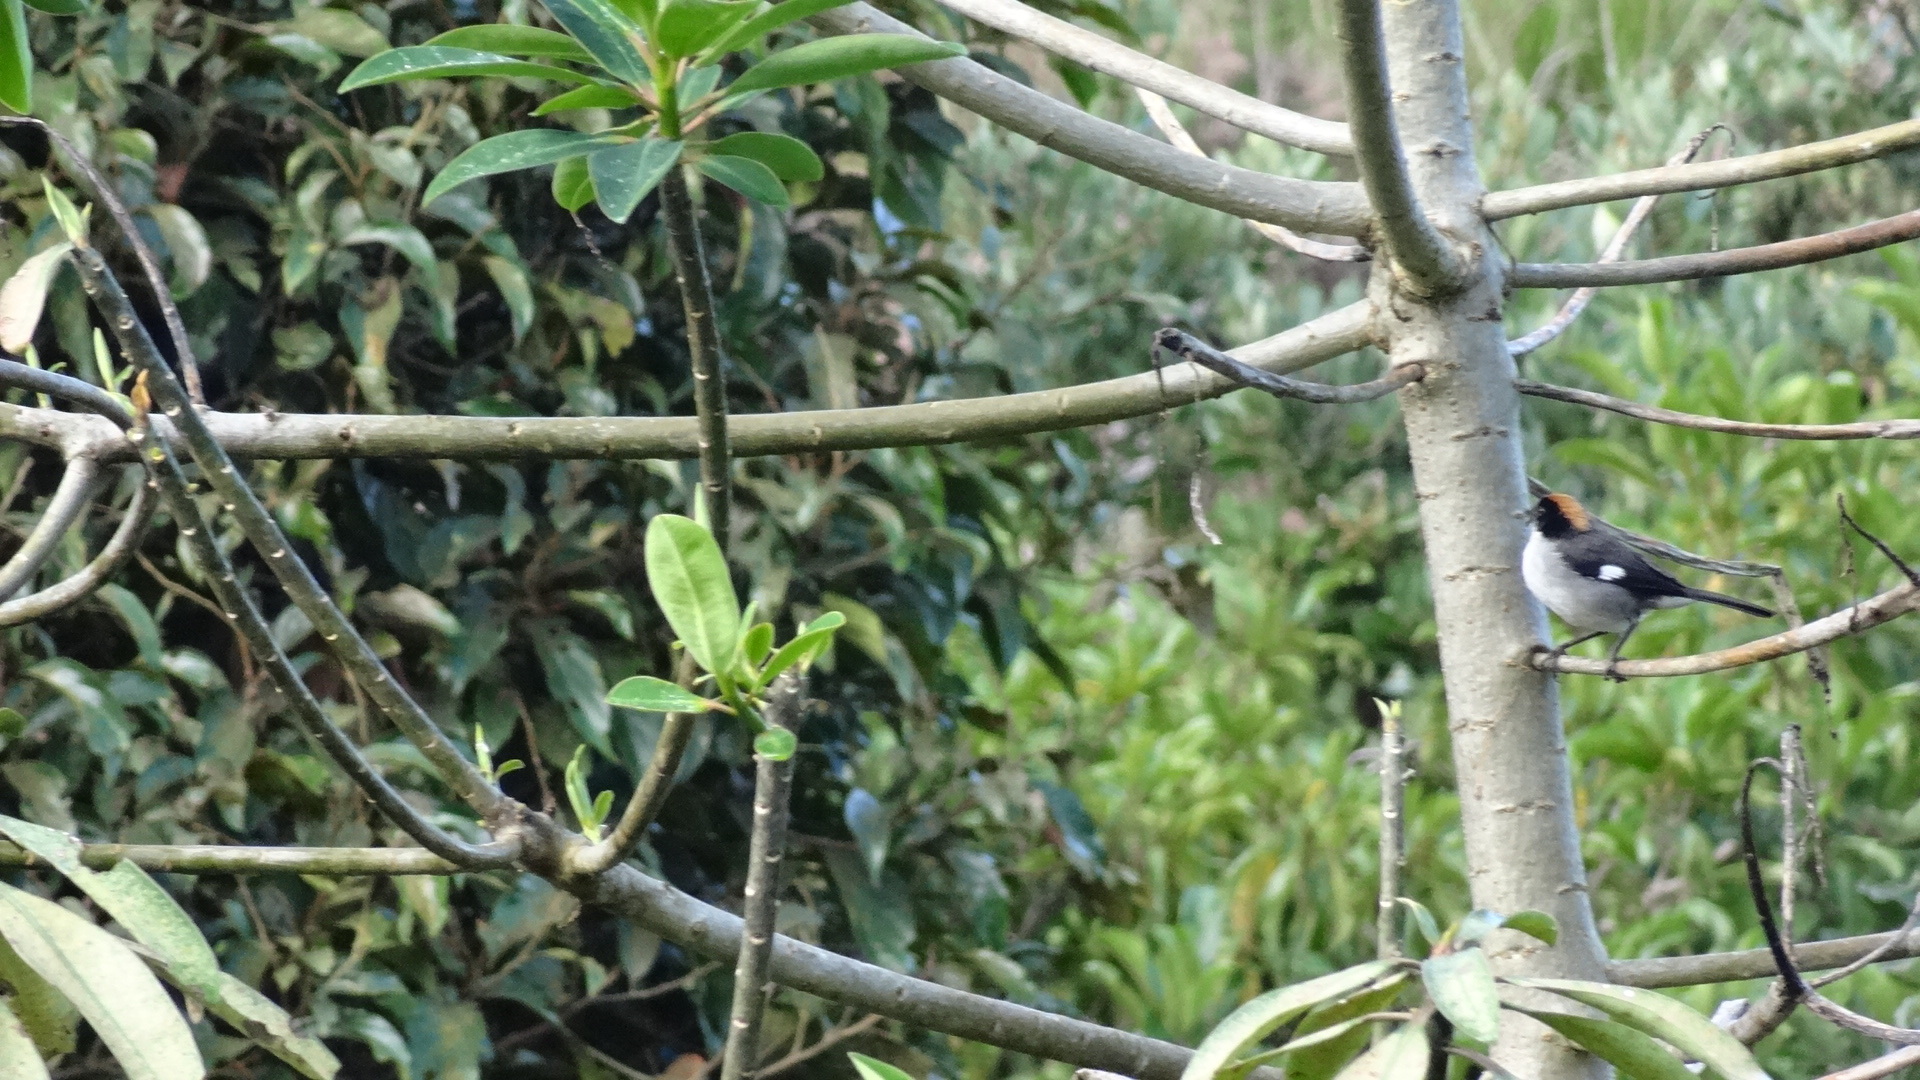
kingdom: Animalia
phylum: Chordata
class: Aves
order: Passeriformes
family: Passerellidae
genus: Atlapetes
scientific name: Atlapetes leucopterus
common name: White-winged brushfinch
